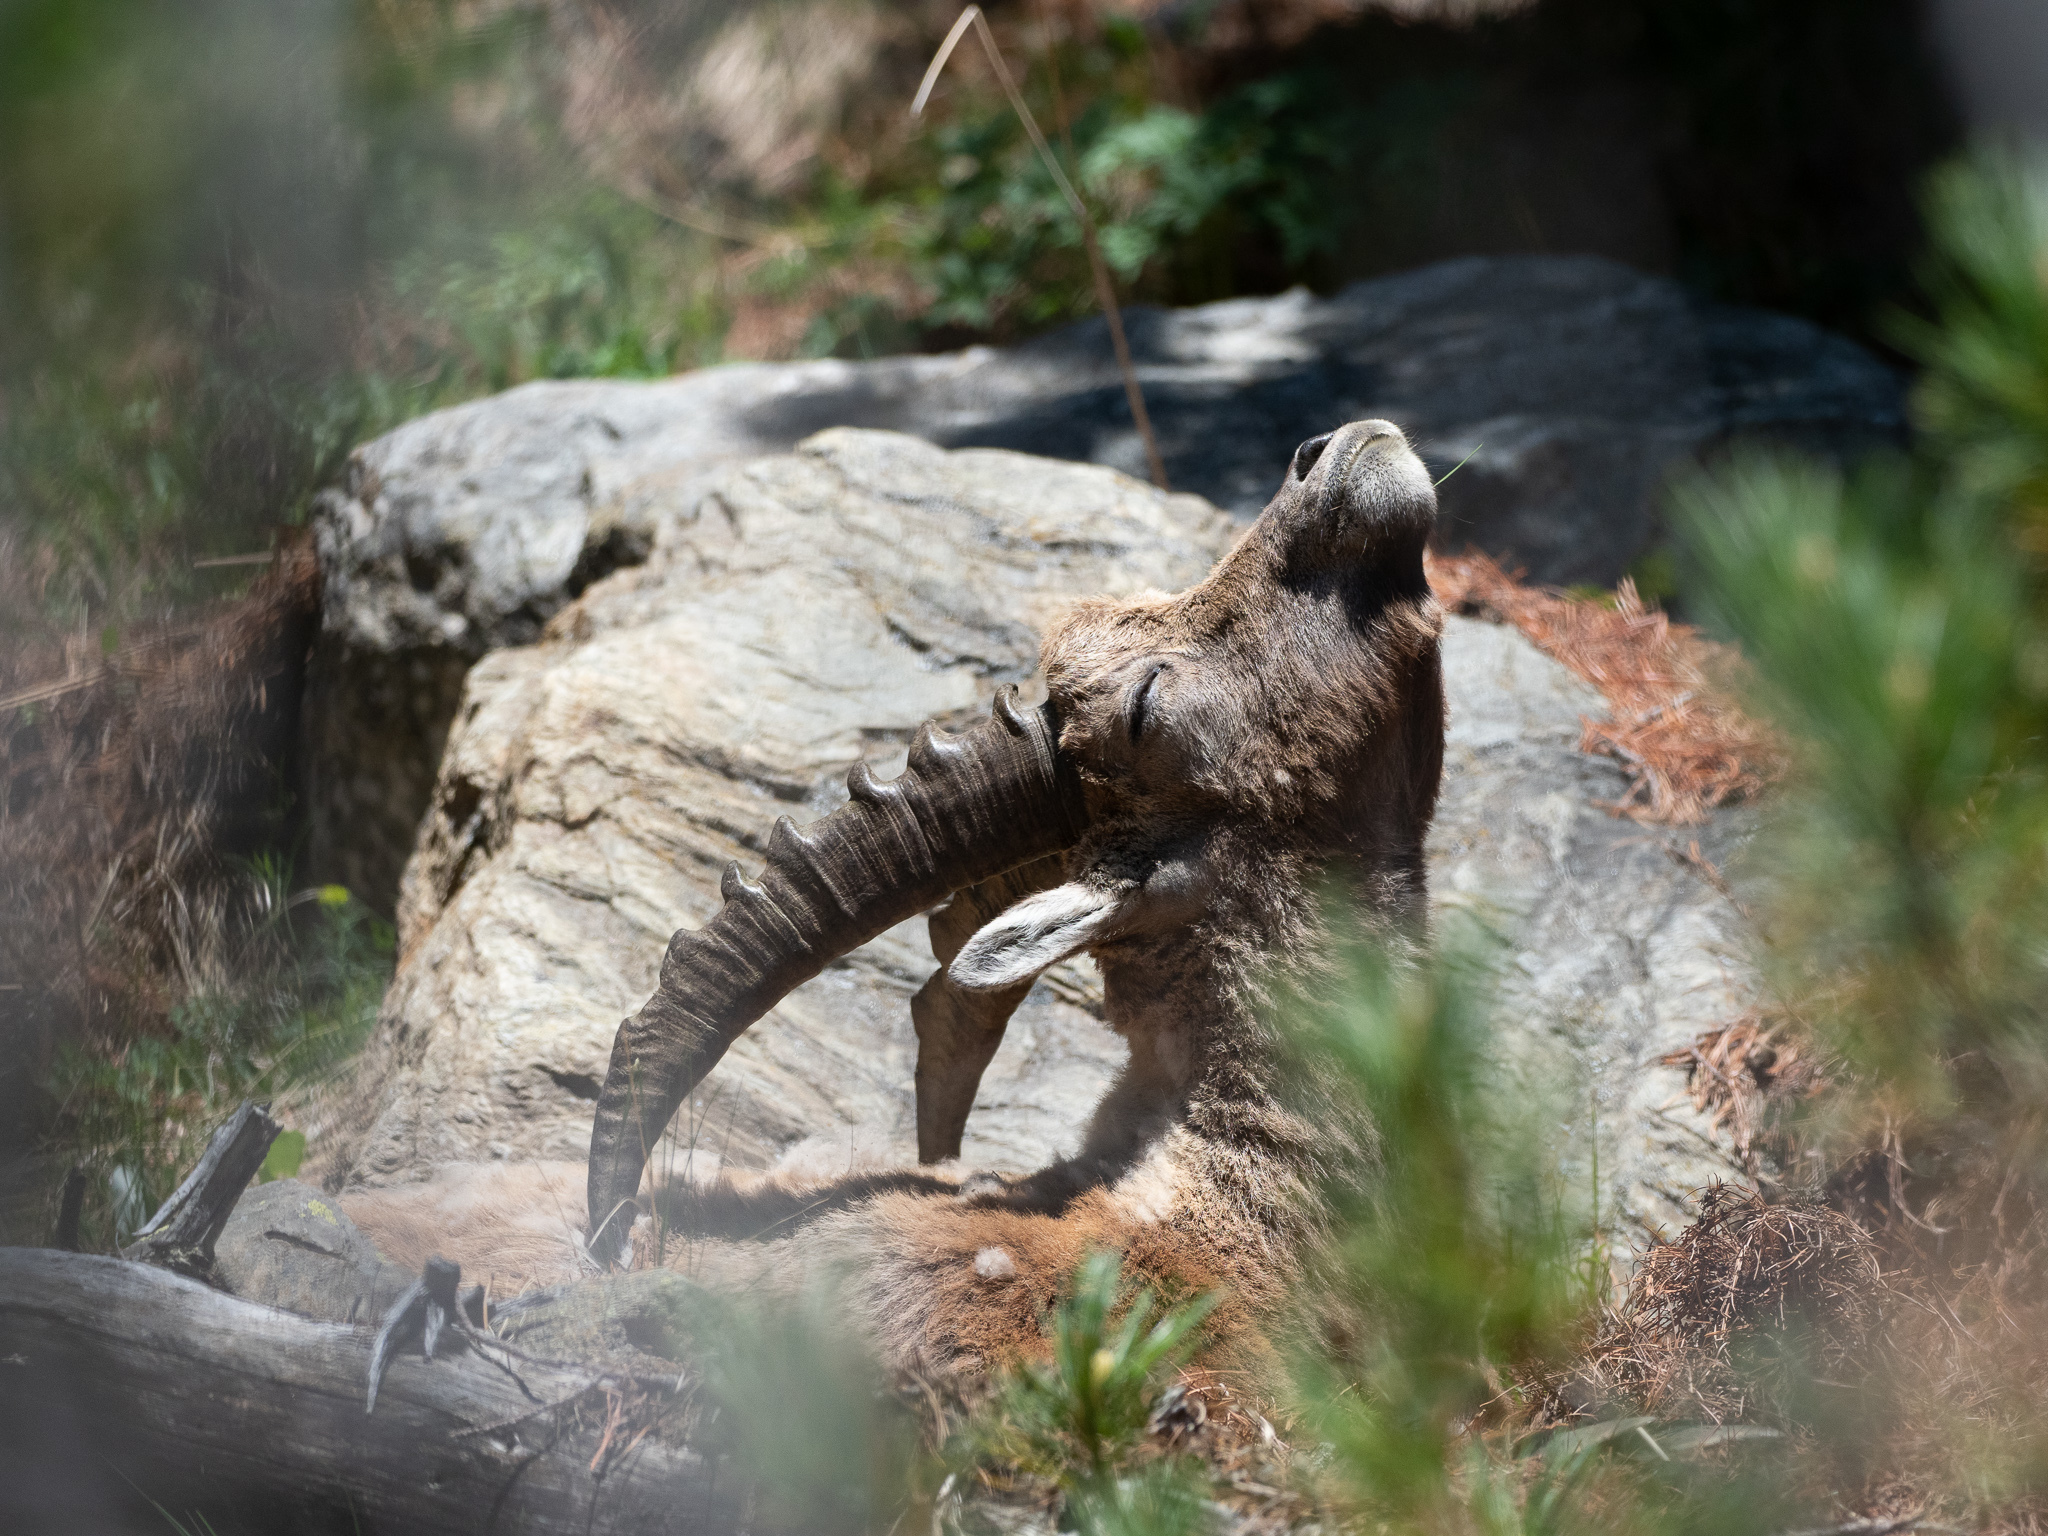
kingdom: Animalia
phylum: Chordata
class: Mammalia
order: Artiodactyla
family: Bovidae
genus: Capra
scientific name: Capra ibex
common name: Alpine ibex
